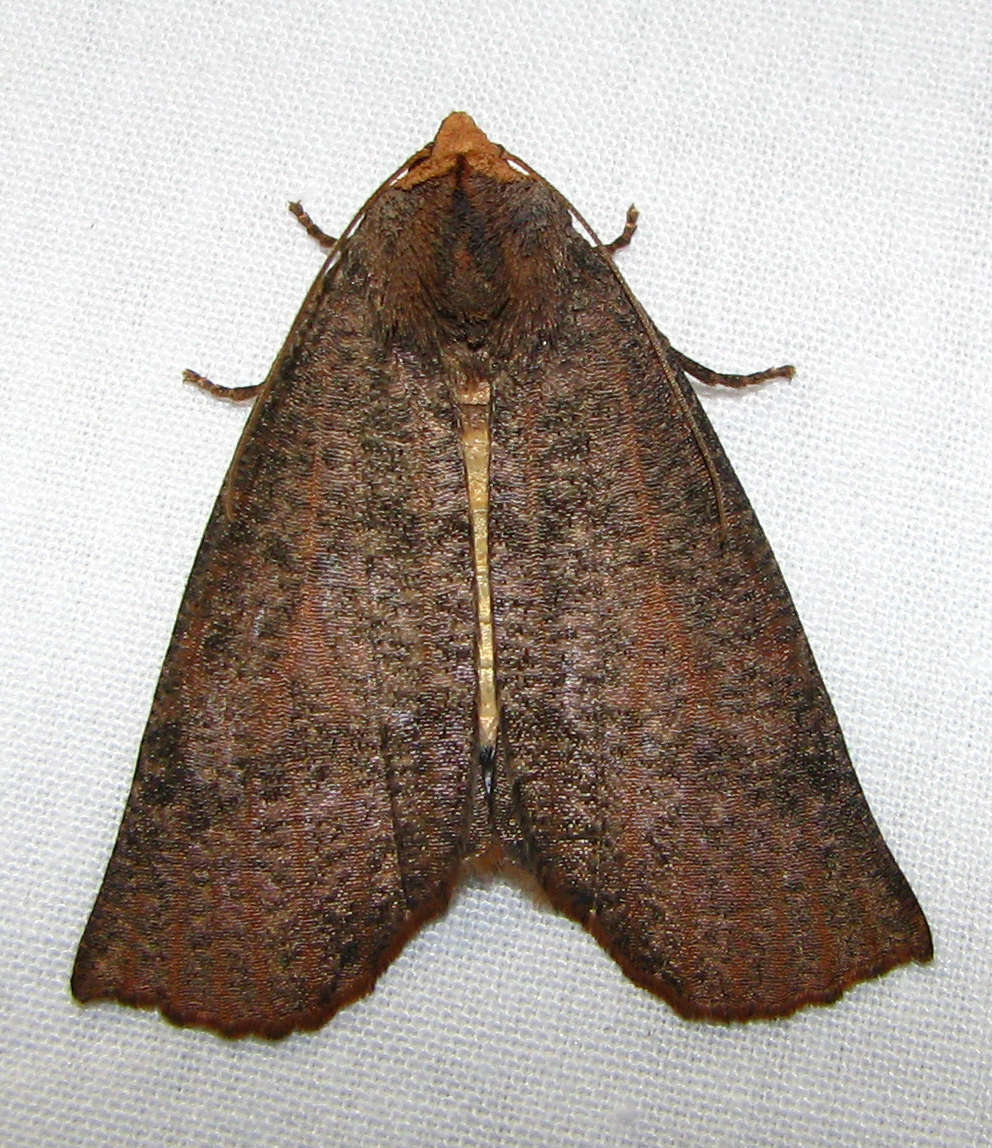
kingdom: Animalia
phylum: Arthropoda
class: Insecta
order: Lepidoptera
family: Geometridae
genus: Fisera
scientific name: Fisera eribola
